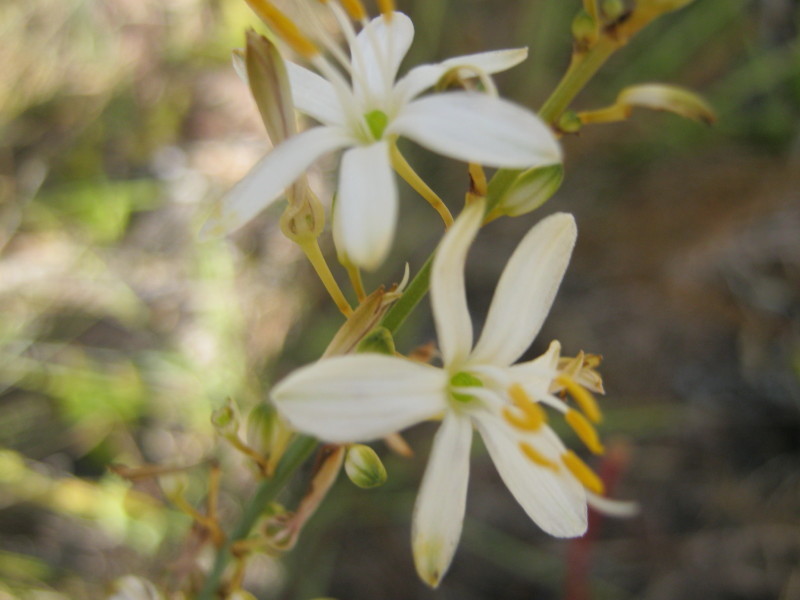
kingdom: Plantae
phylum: Tracheophyta
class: Liliopsida
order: Asparagales
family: Asparagaceae
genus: Chlorophytum
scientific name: Chlorophytum comosum
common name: Spider plant
